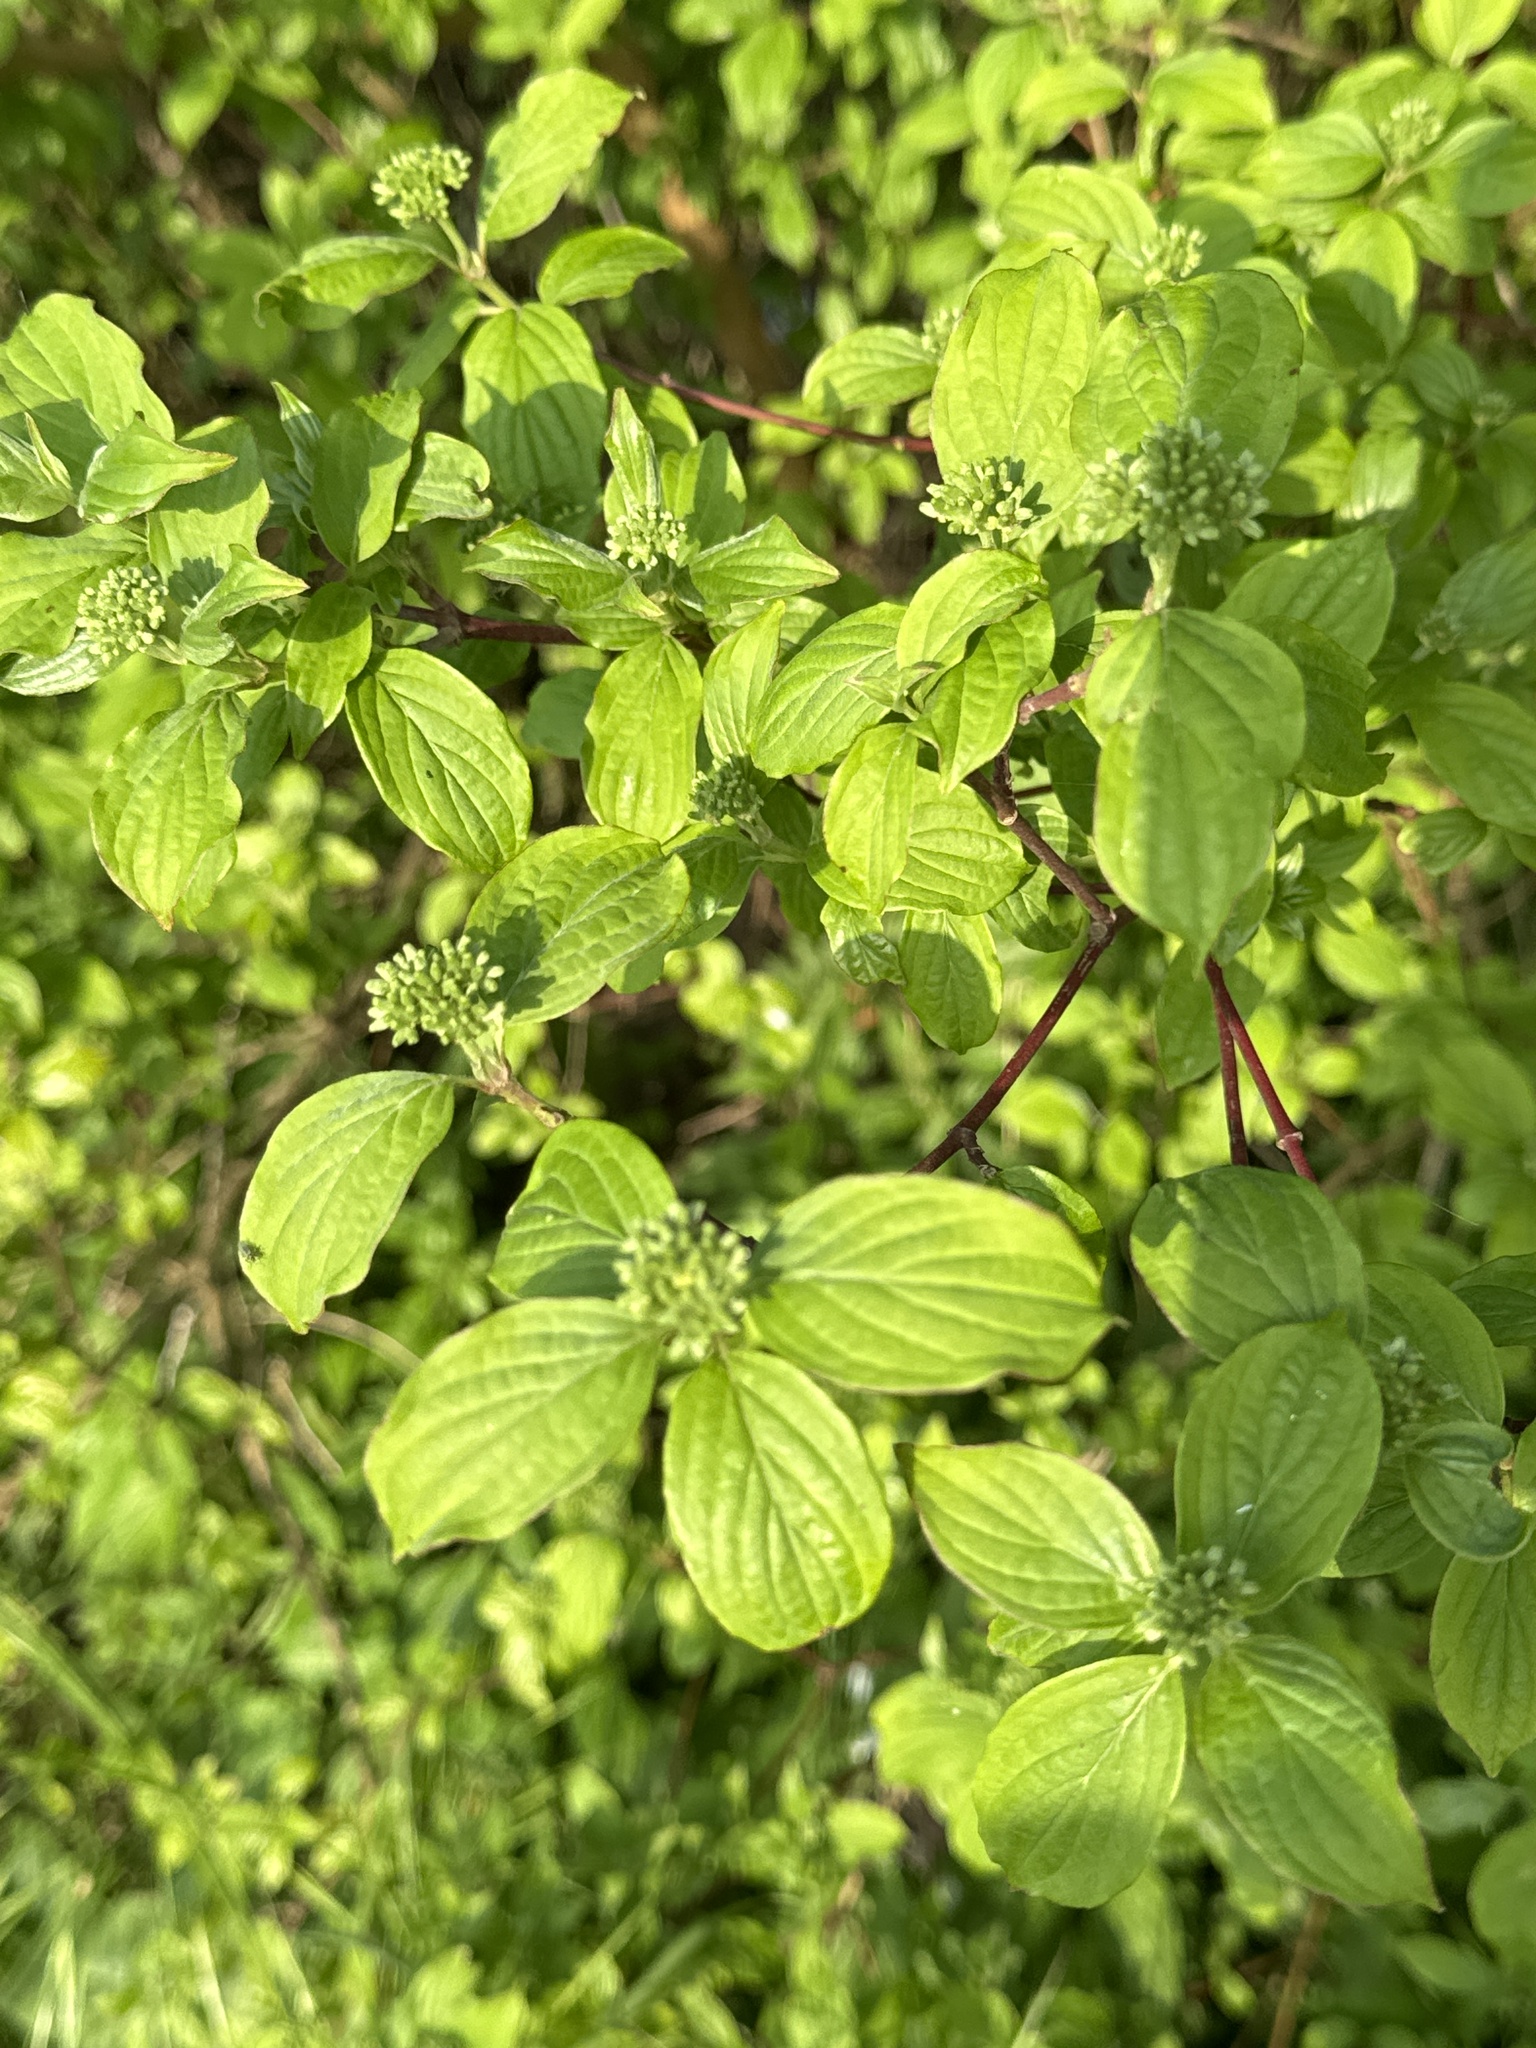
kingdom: Plantae
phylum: Tracheophyta
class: Magnoliopsida
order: Cornales
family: Cornaceae
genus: Cornus
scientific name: Cornus sanguinea
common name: Dogwood
